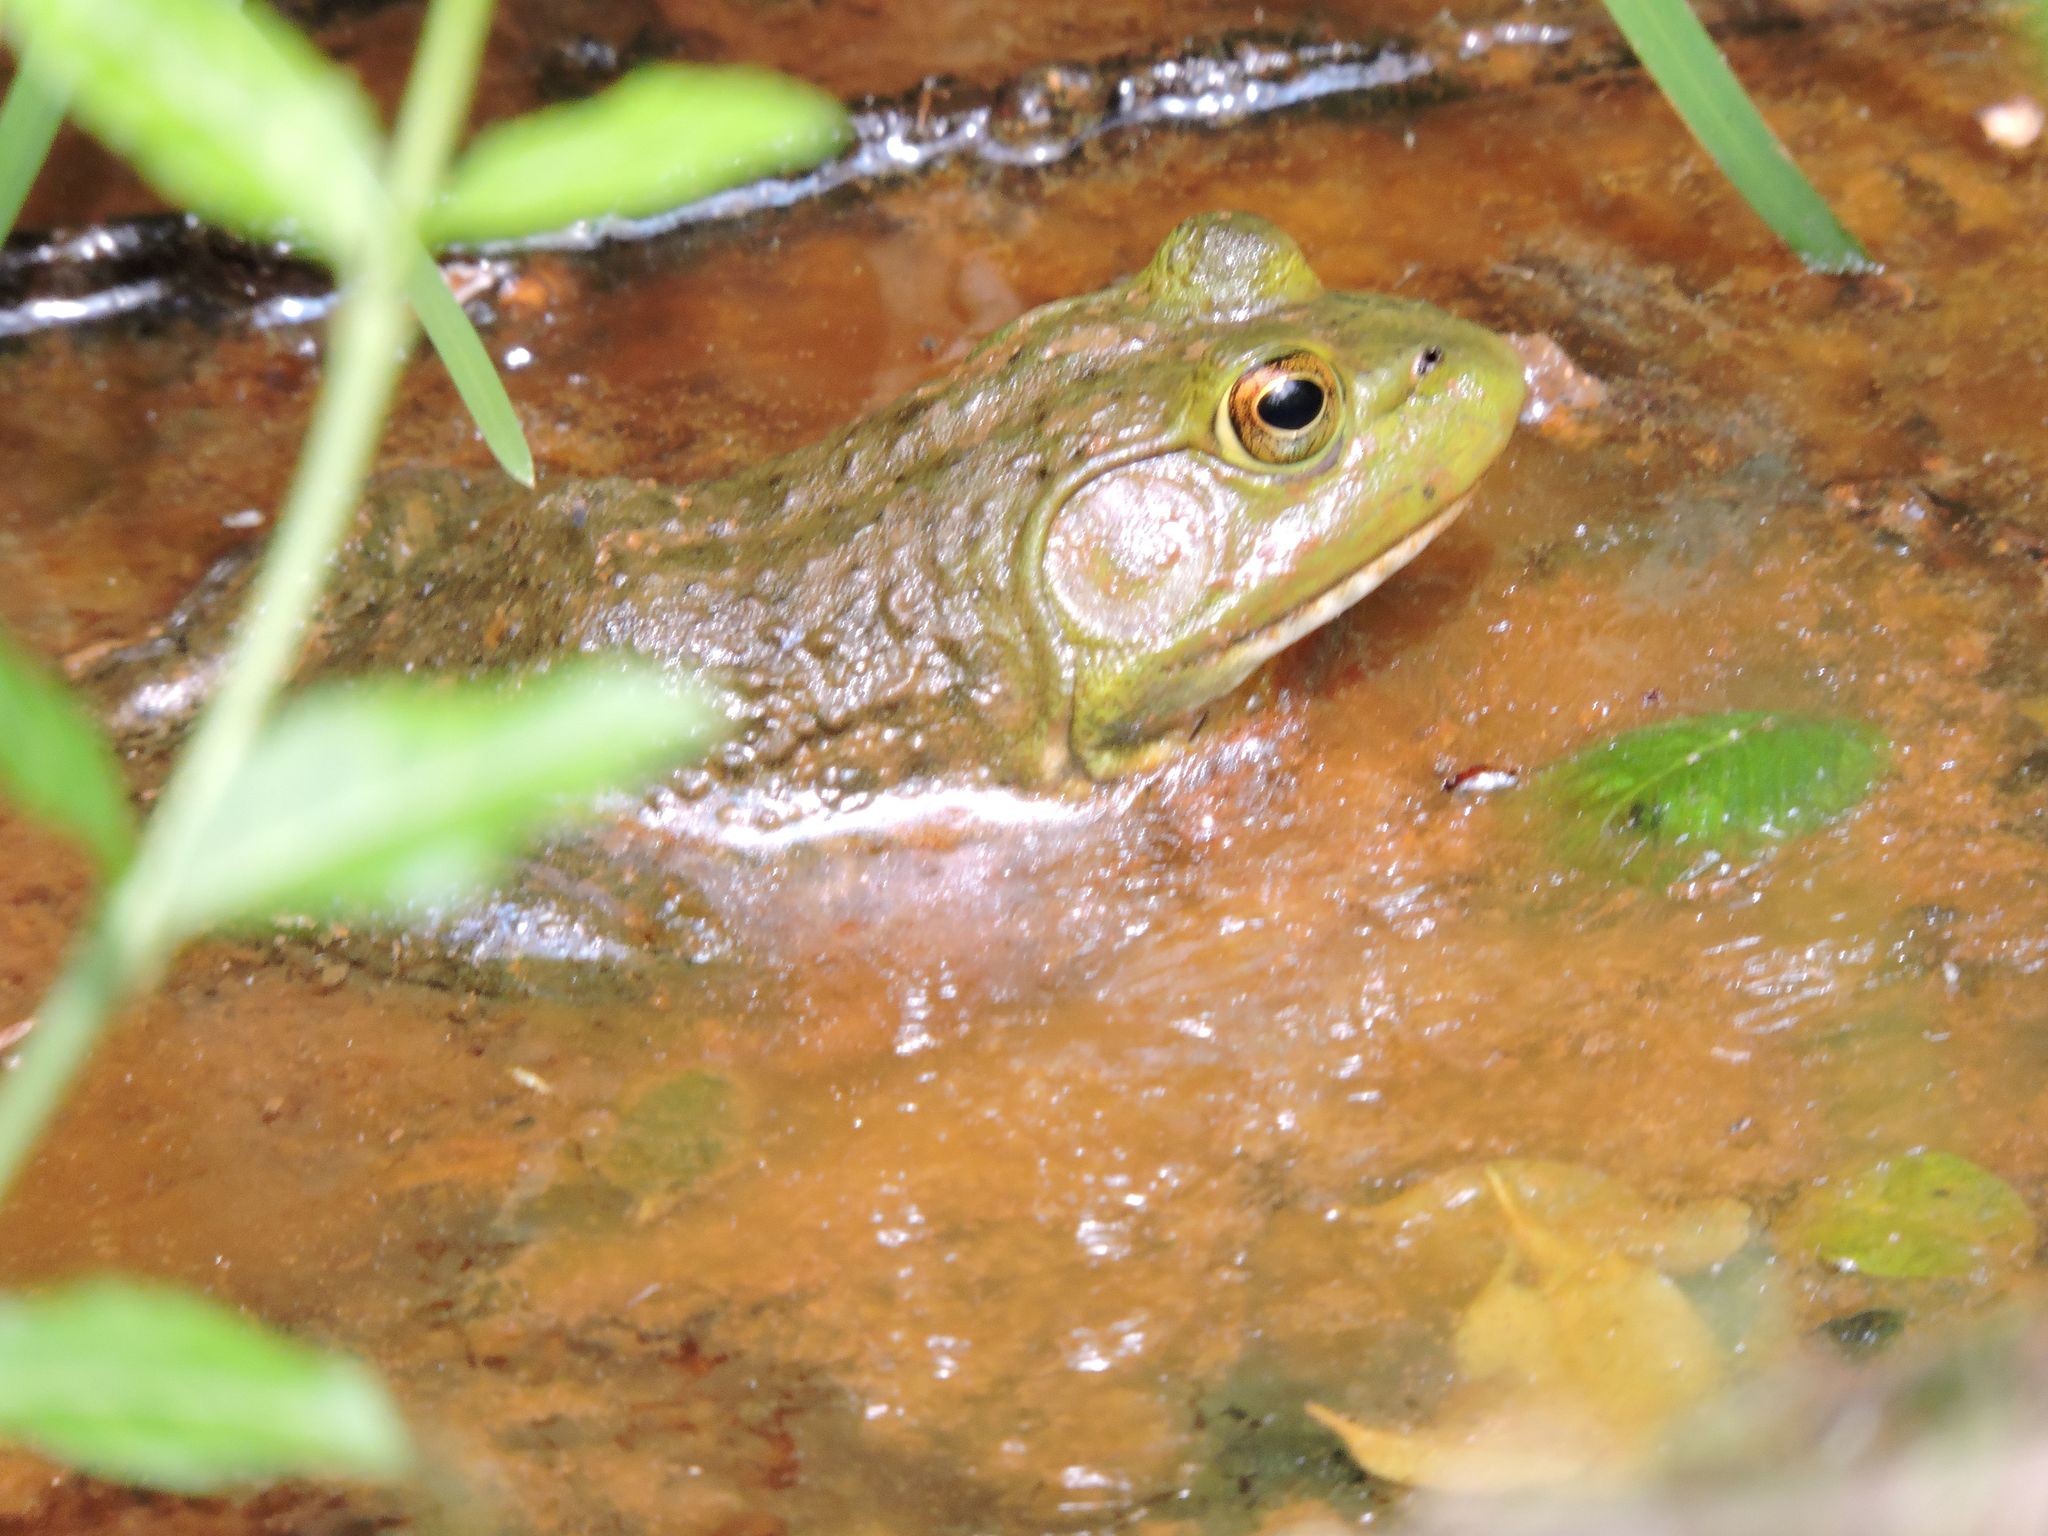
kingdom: Animalia
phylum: Chordata
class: Amphibia
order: Anura
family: Ranidae
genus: Lithobates
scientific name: Lithobates catesbeianus
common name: American bullfrog
